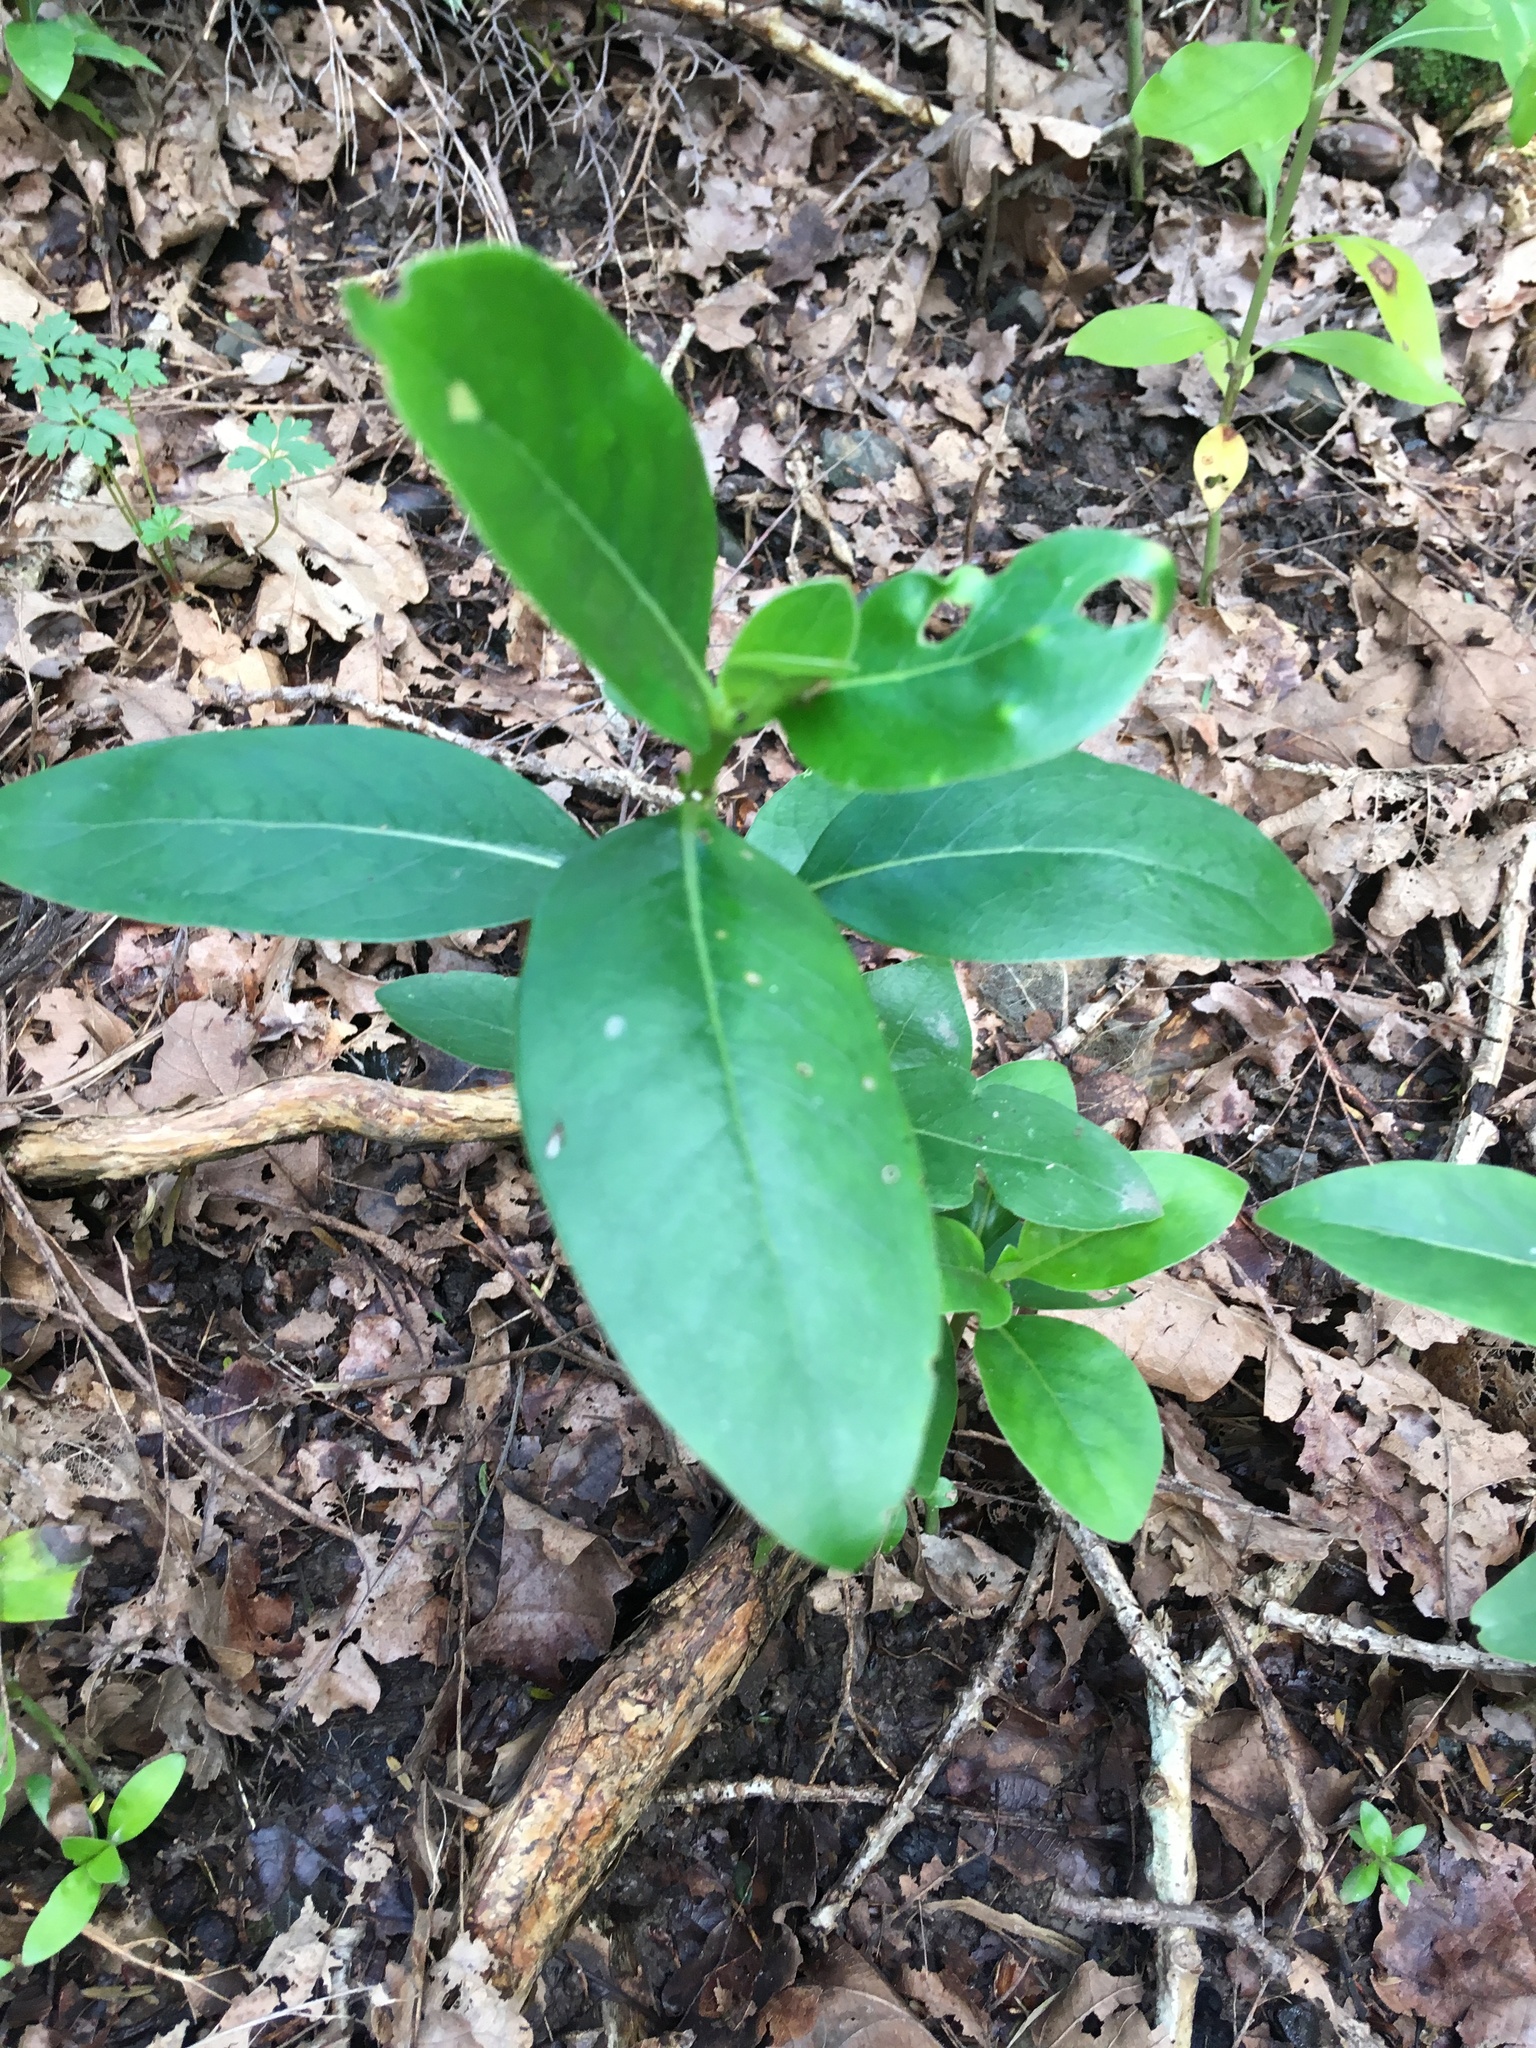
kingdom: Plantae
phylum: Tracheophyta
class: Magnoliopsida
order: Gentianales
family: Rubiaceae
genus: Coprosma
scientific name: Coprosma robusta
